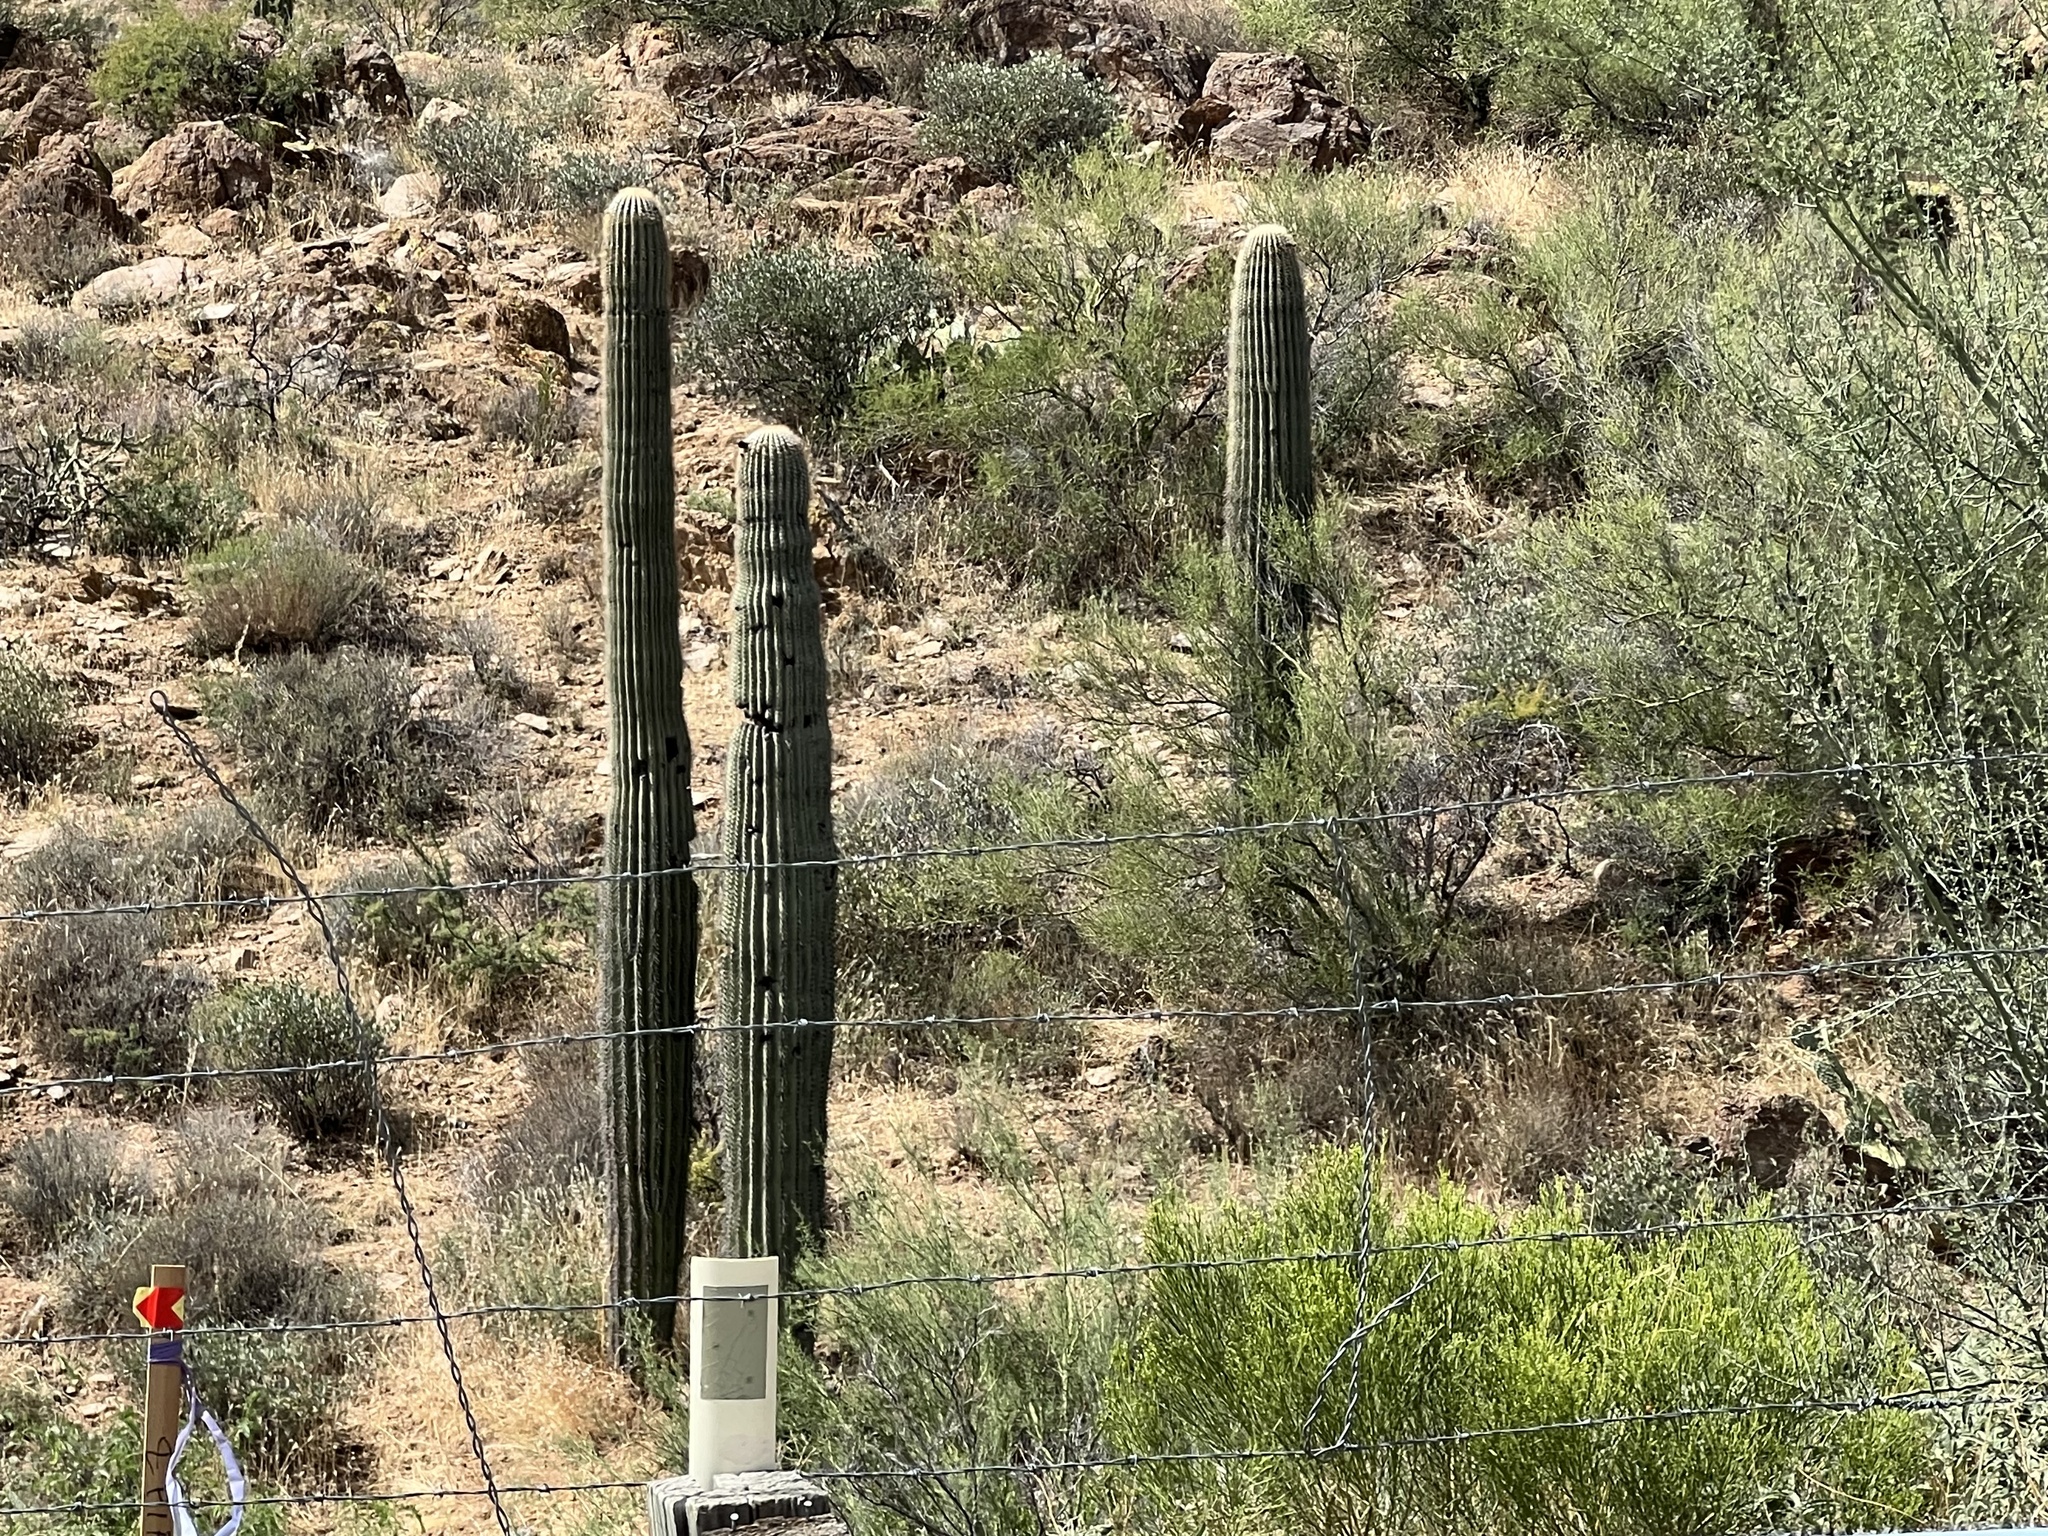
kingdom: Plantae
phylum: Tracheophyta
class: Magnoliopsida
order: Caryophyllales
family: Cactaceae
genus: Carnegiea
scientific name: Carnegiea gigantea
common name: Saguaro
